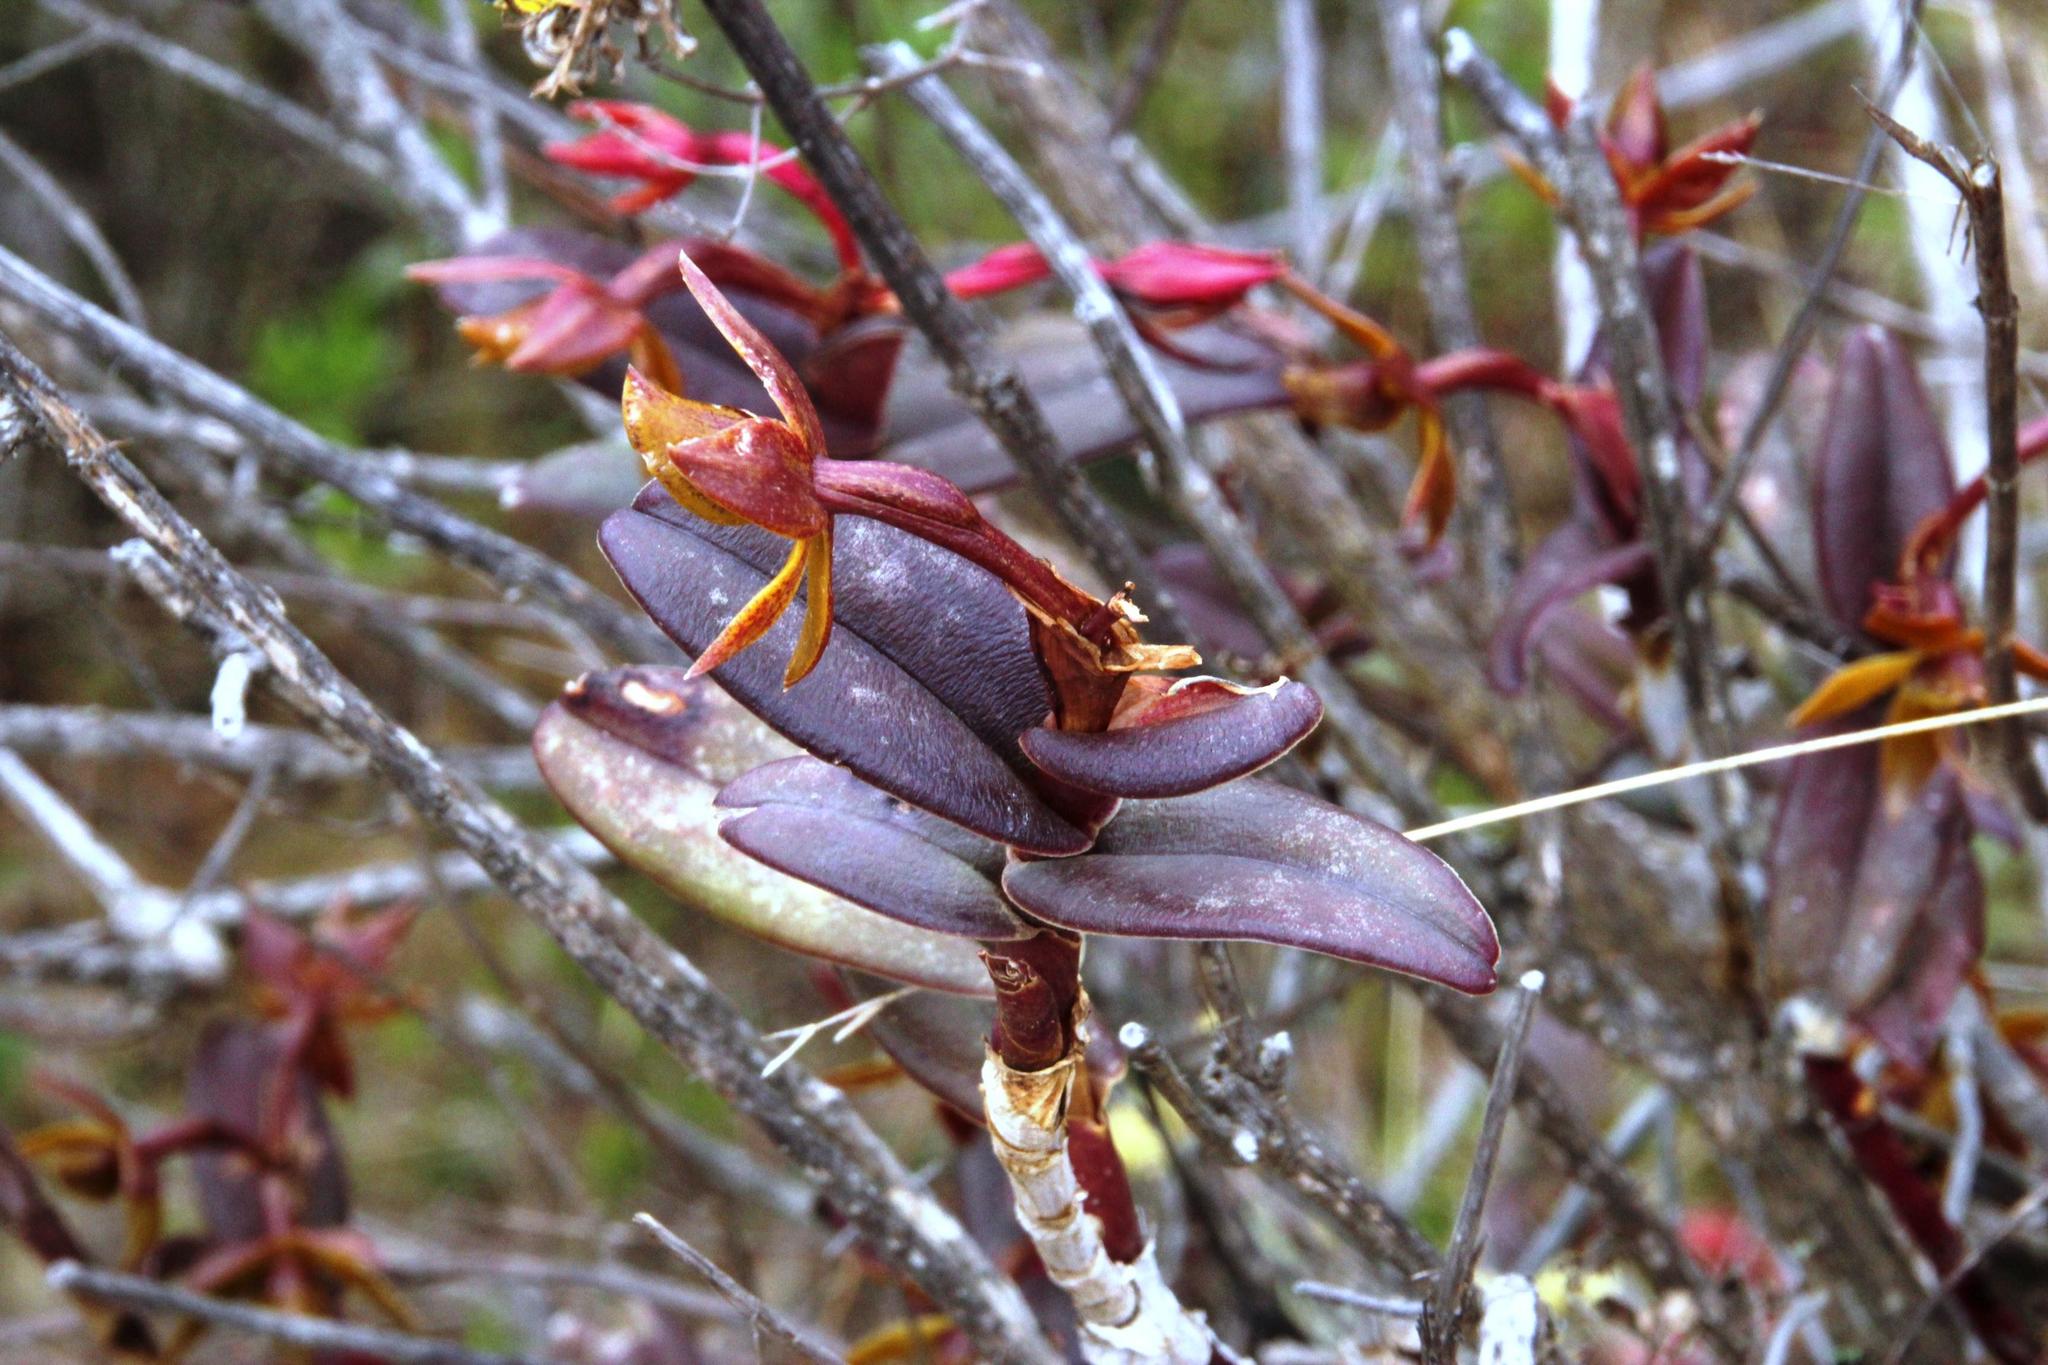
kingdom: Plantae
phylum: Tracheophyta
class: Liliopsida
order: Asparagales
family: Orchidaceae
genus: Epidendrum
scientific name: Epidendrum megagastrium
